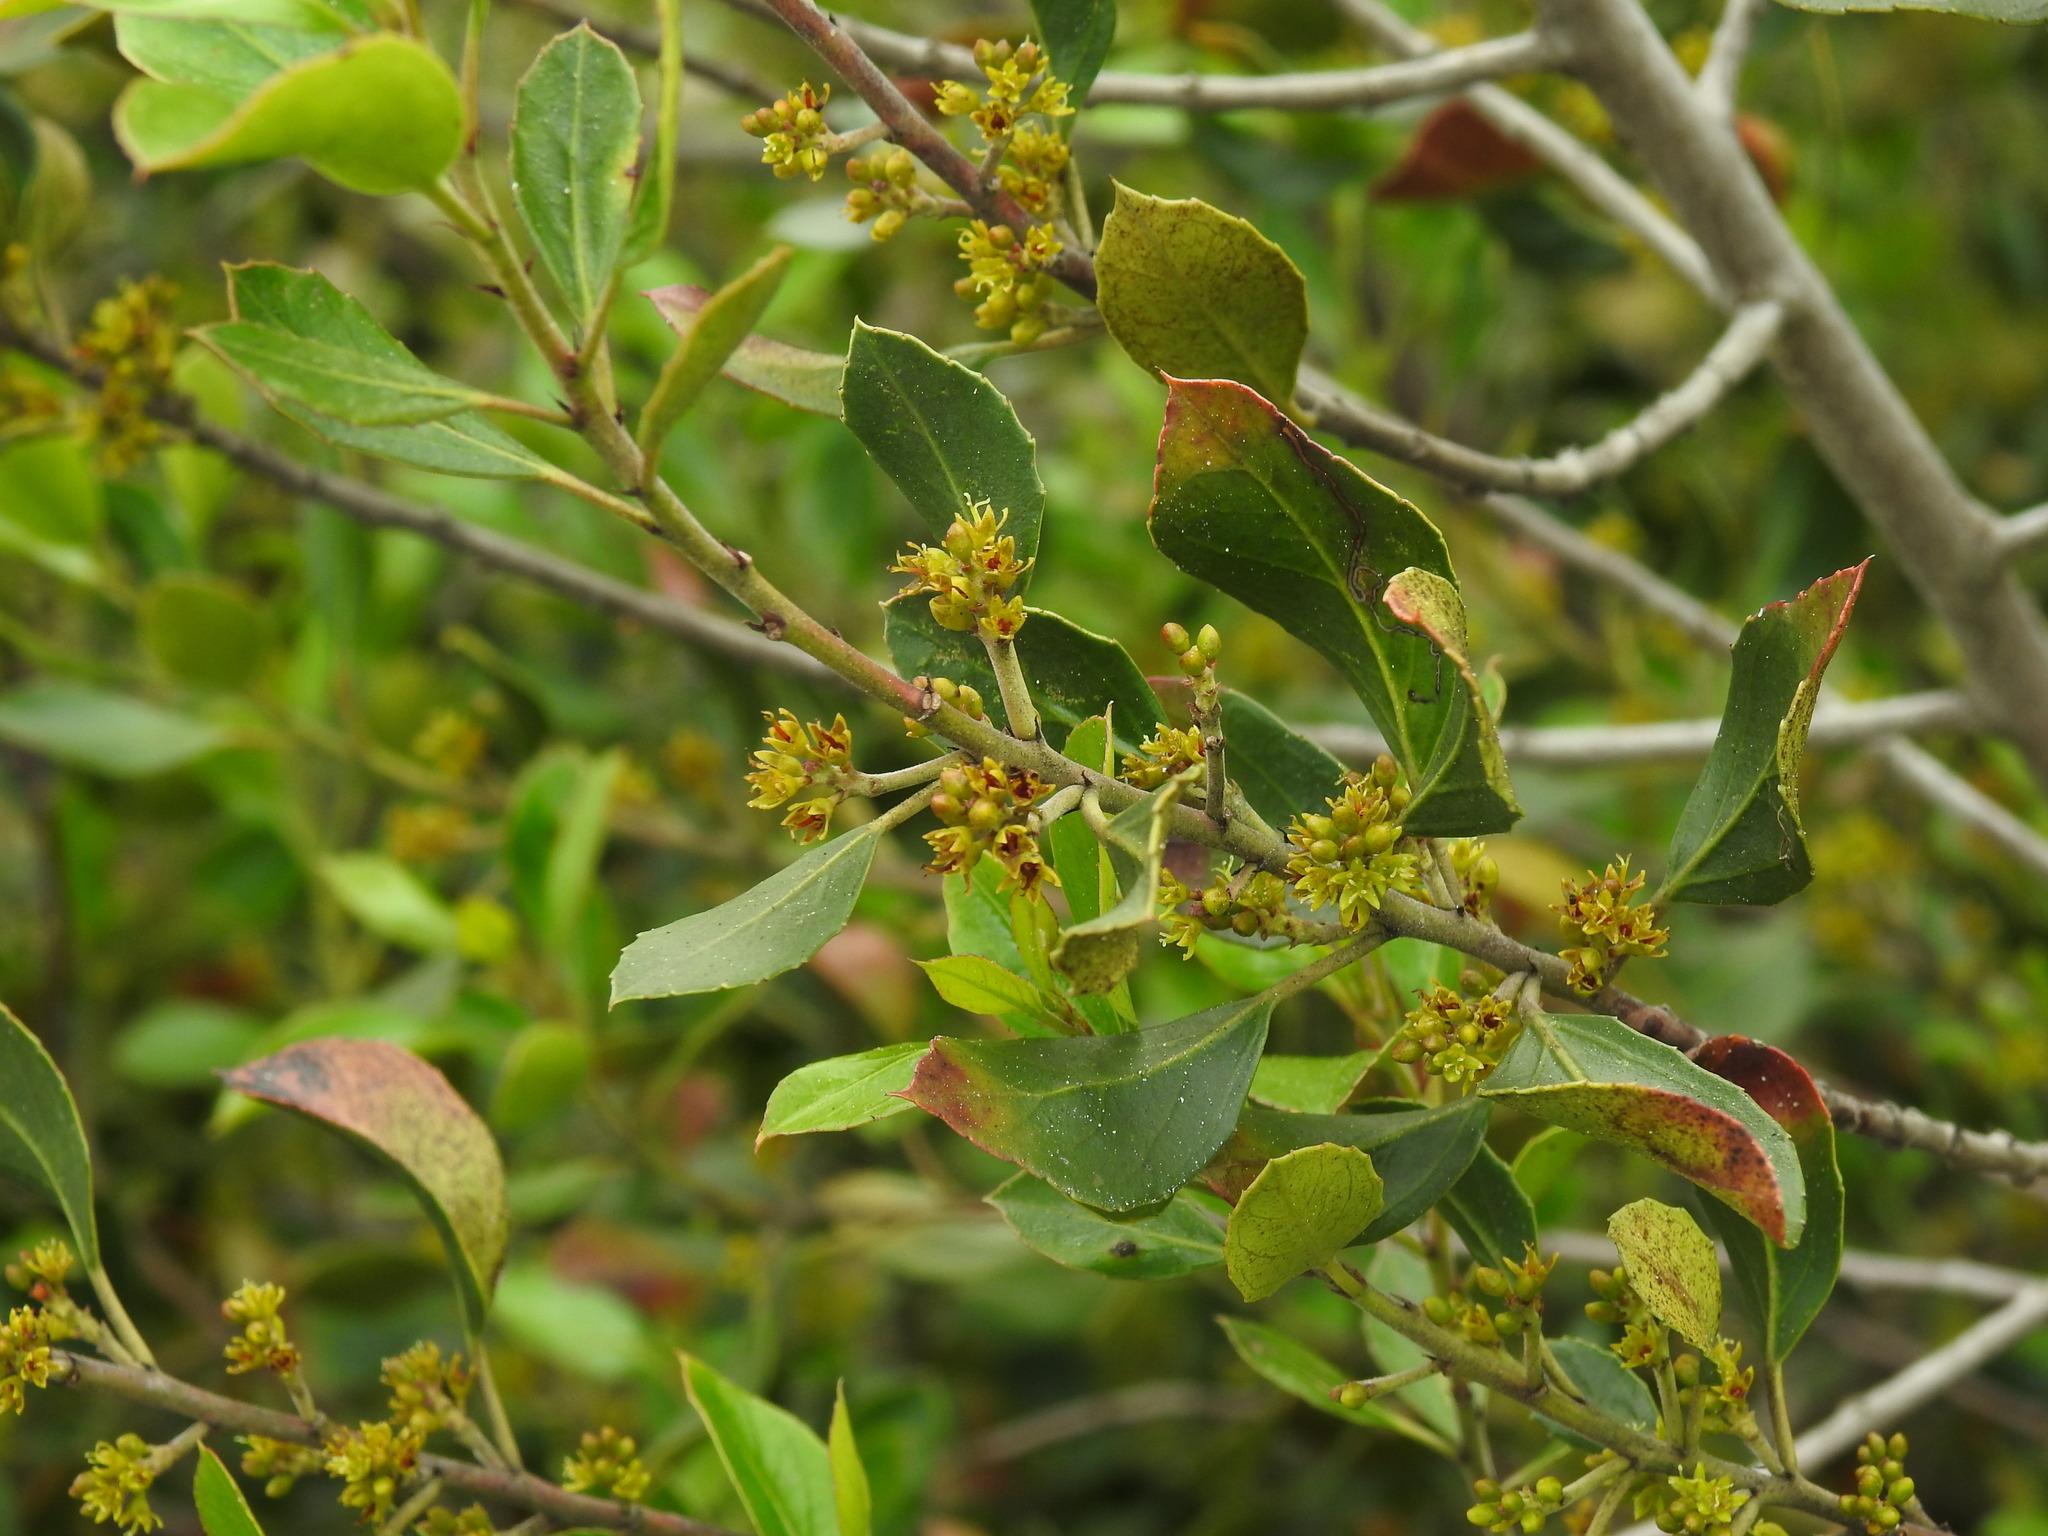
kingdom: Plantae
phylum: Tracheophyta
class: Magnoliopsida
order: Rosales
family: Rhamnaceae
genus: Rhamnus
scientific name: Rhamnus alaternus
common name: Mediterranean buckthorn
